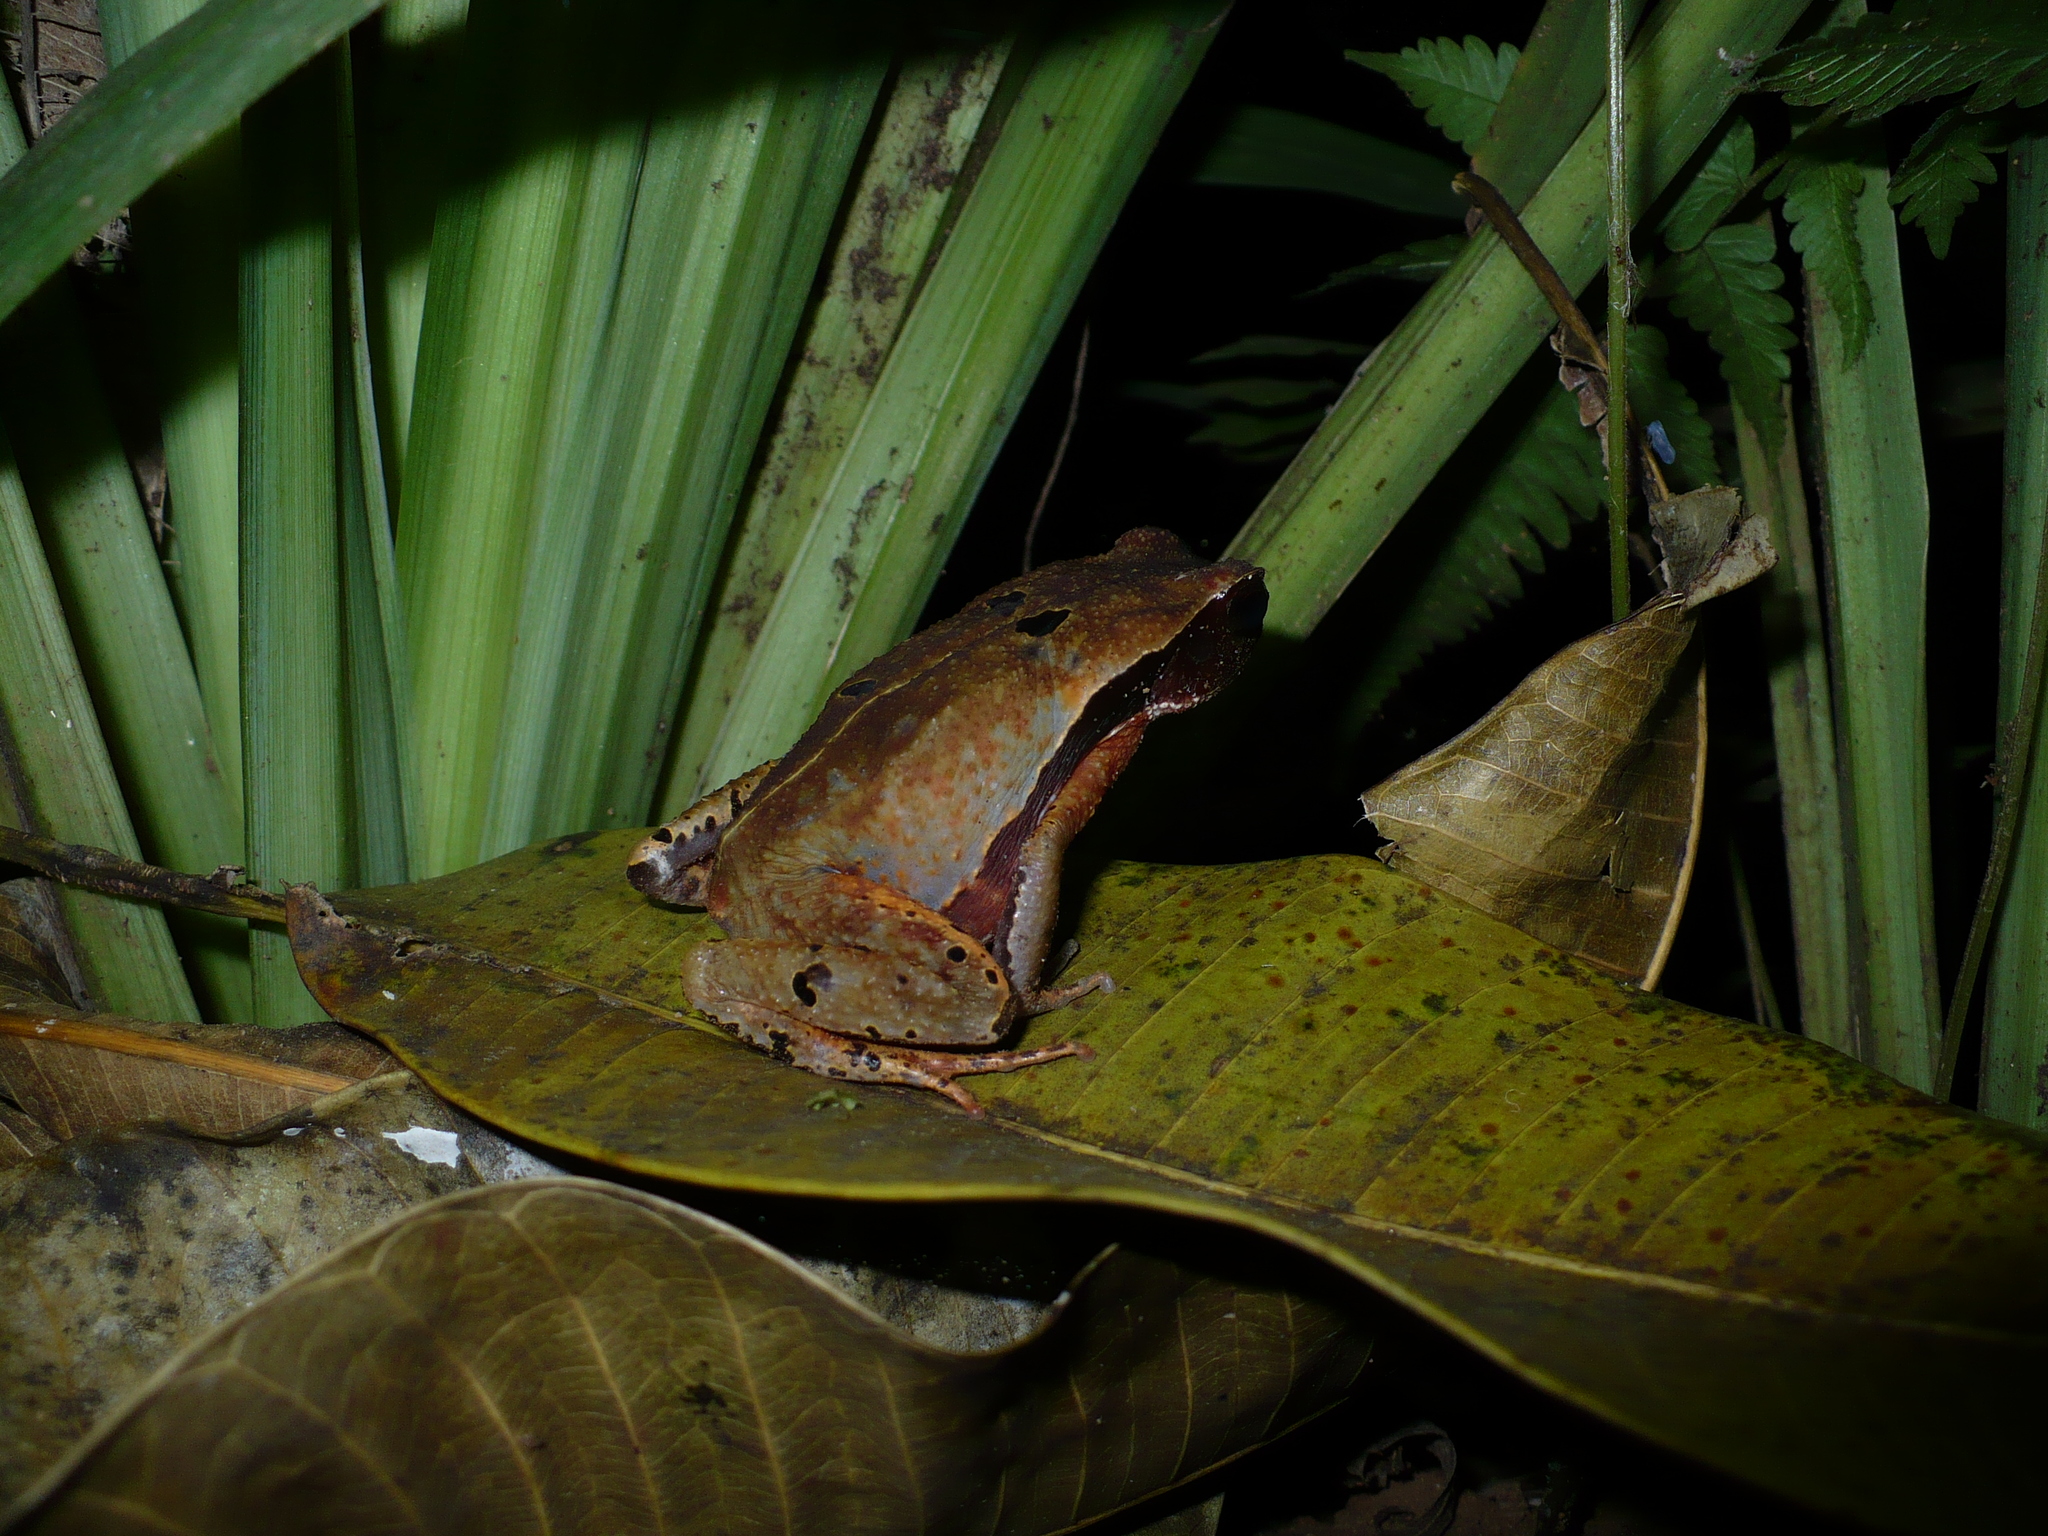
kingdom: Animalia
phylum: Chordata
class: Amphibia
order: Anura
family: Bufonidae
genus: Rhaebo
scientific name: Rhaebo haematiticus
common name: Truando toad
